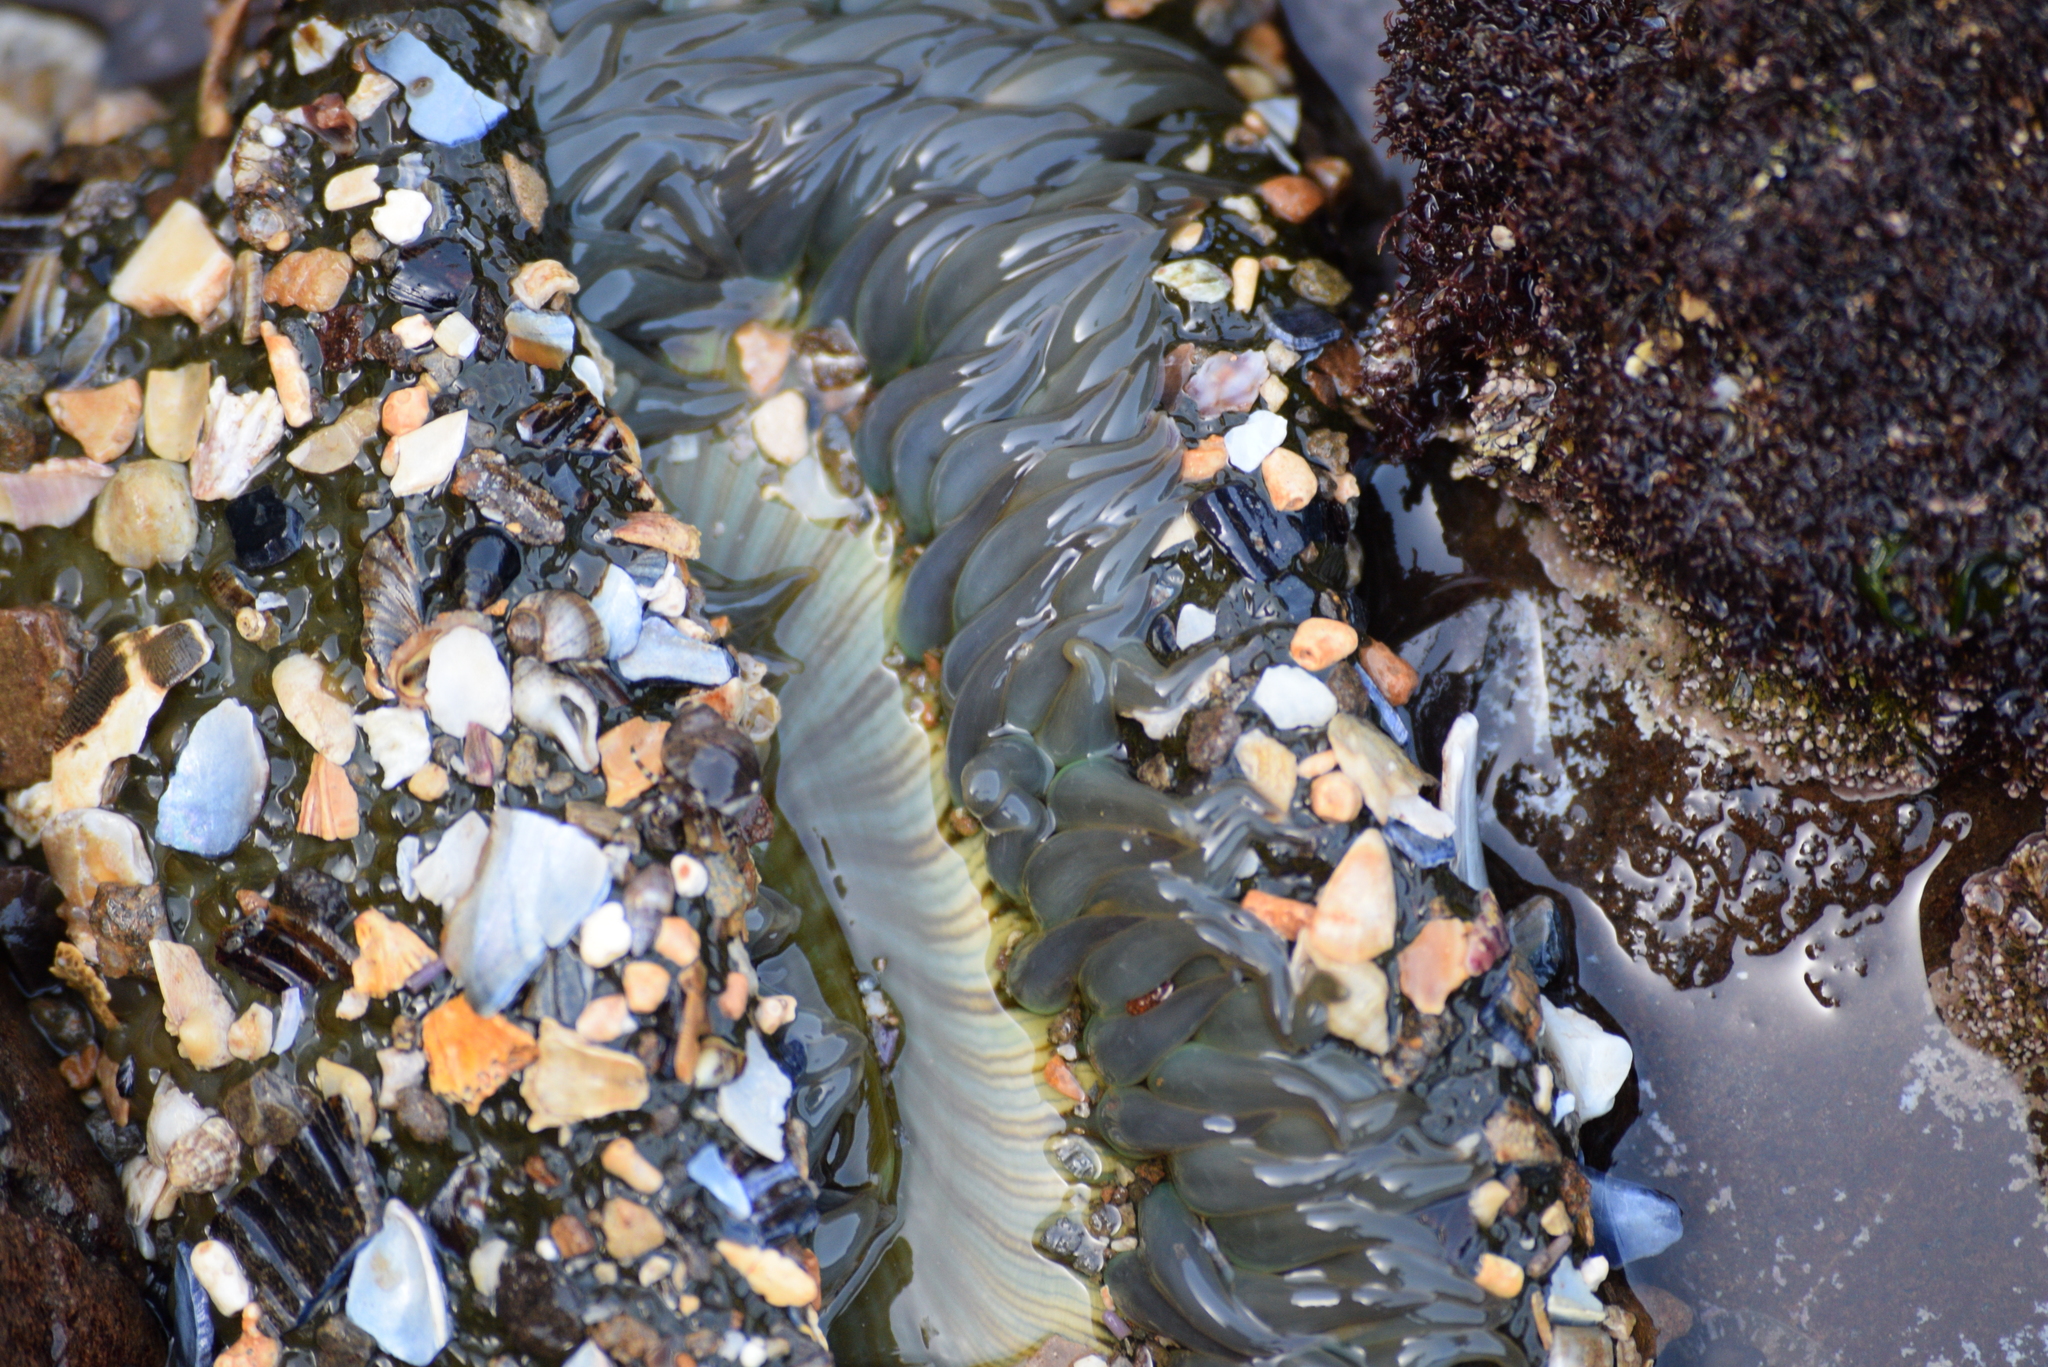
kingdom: Animalia
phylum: Cnidaria
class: Anthozoa
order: Actiniaria
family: Actiniidae
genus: Anthopleura
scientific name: Anthopleura sola
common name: Sun anemone
